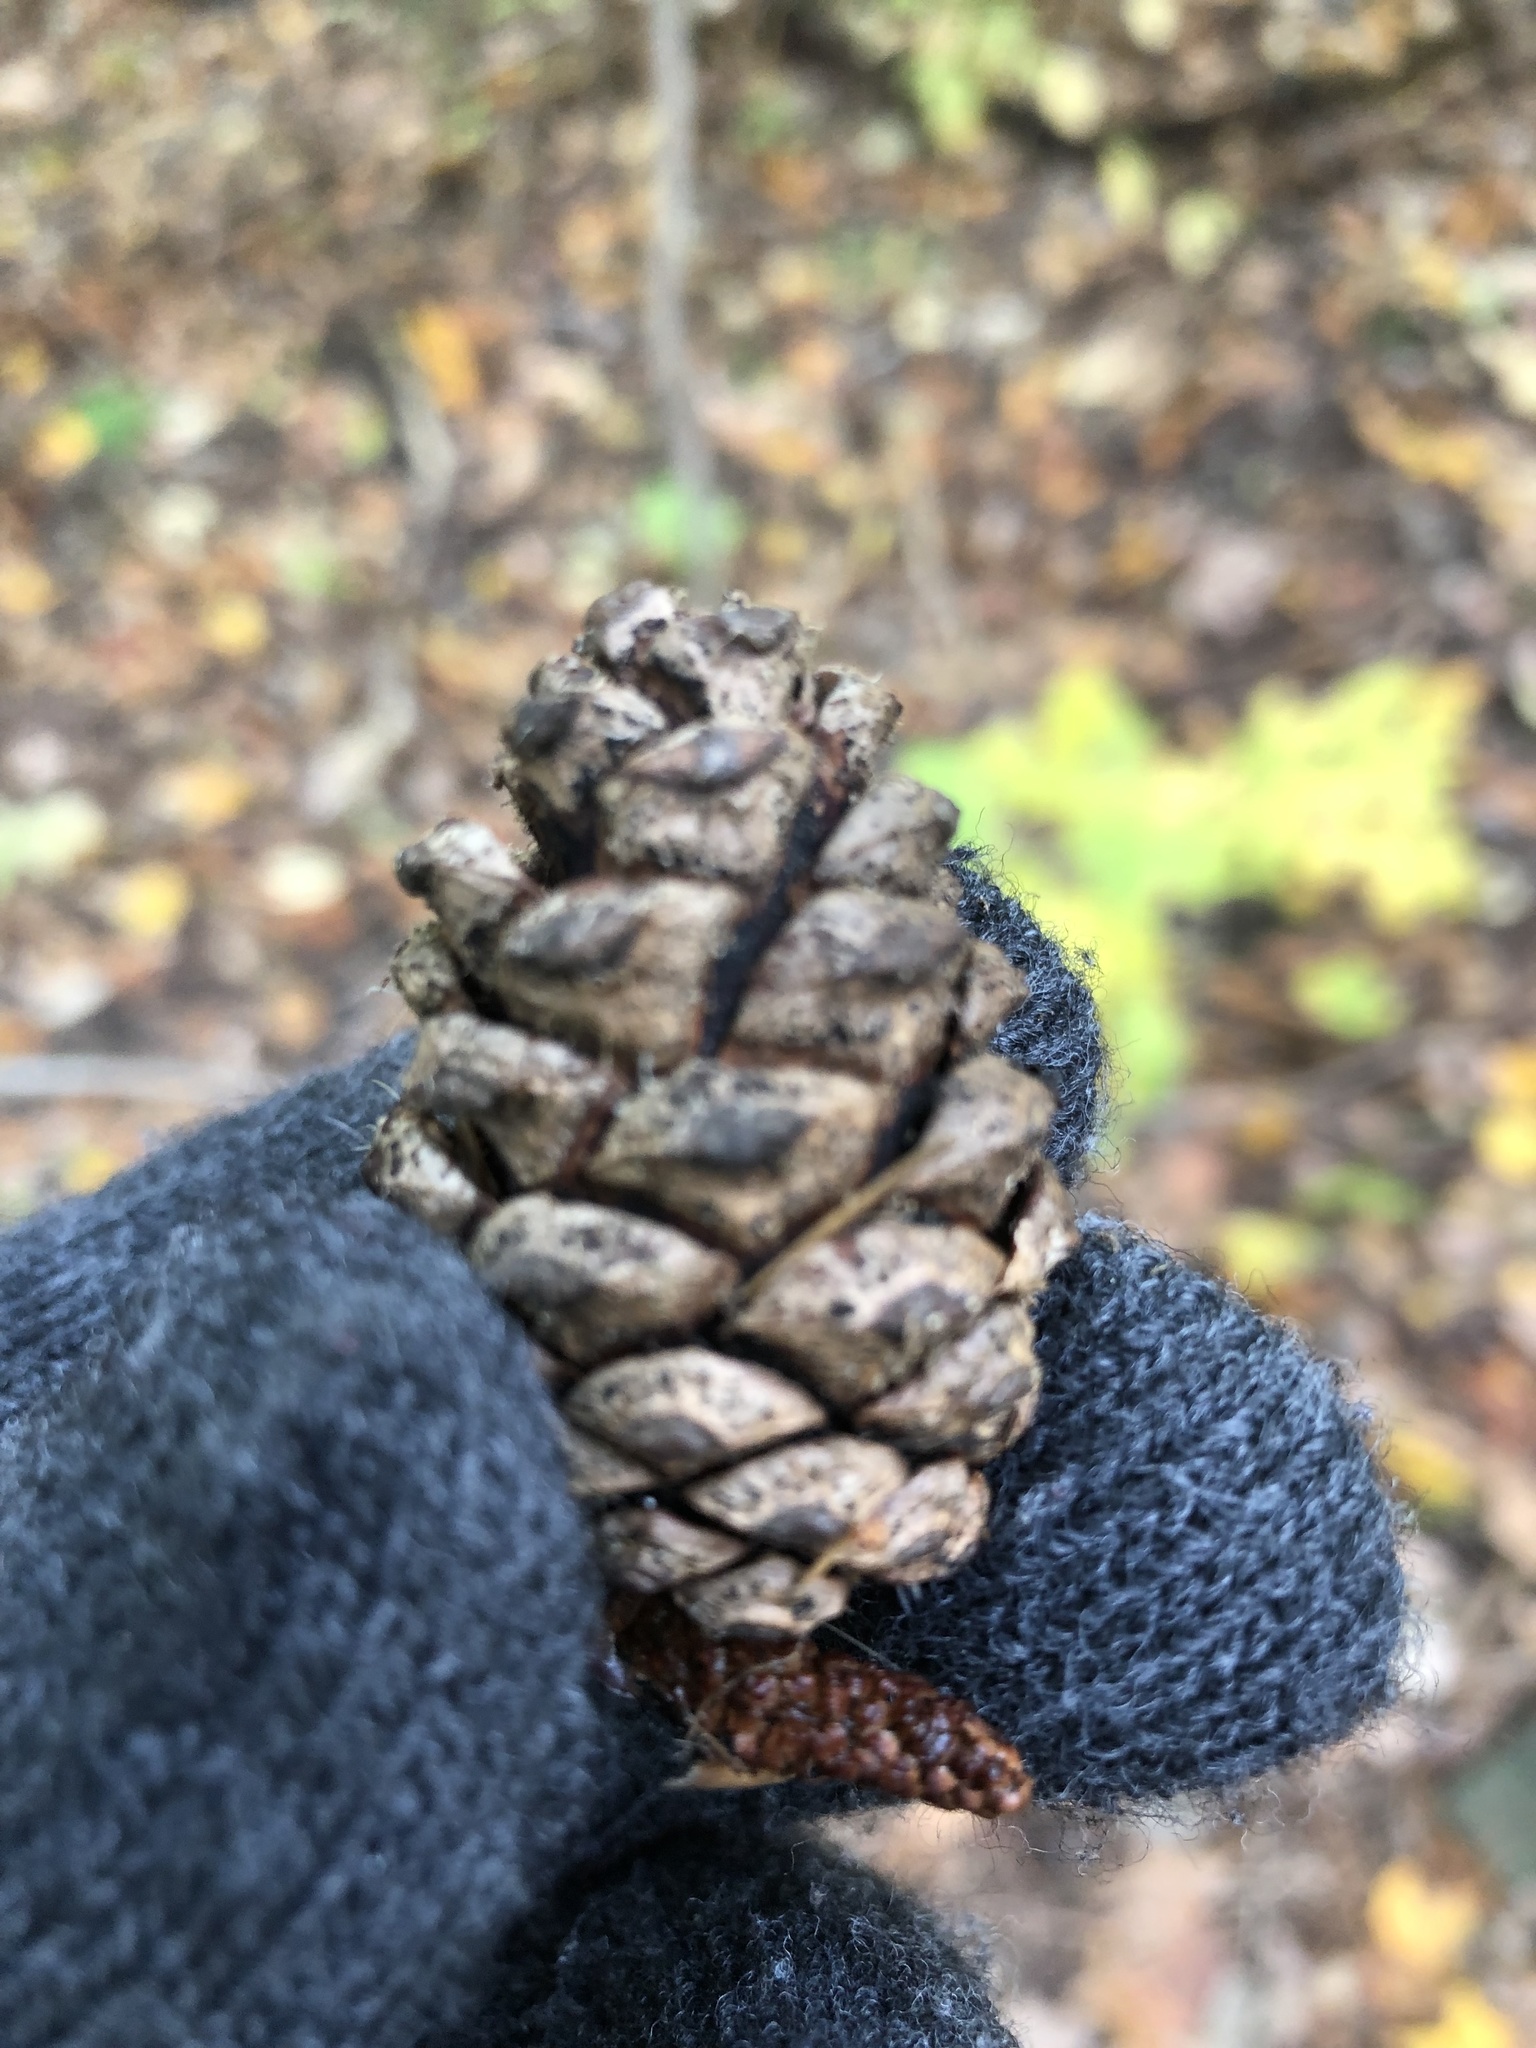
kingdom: Plantae
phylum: Tracheophyta
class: Pinopsida
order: Pinales
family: Pinaceae
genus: Pinus
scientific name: Pinus resinosa
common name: Norway pine
